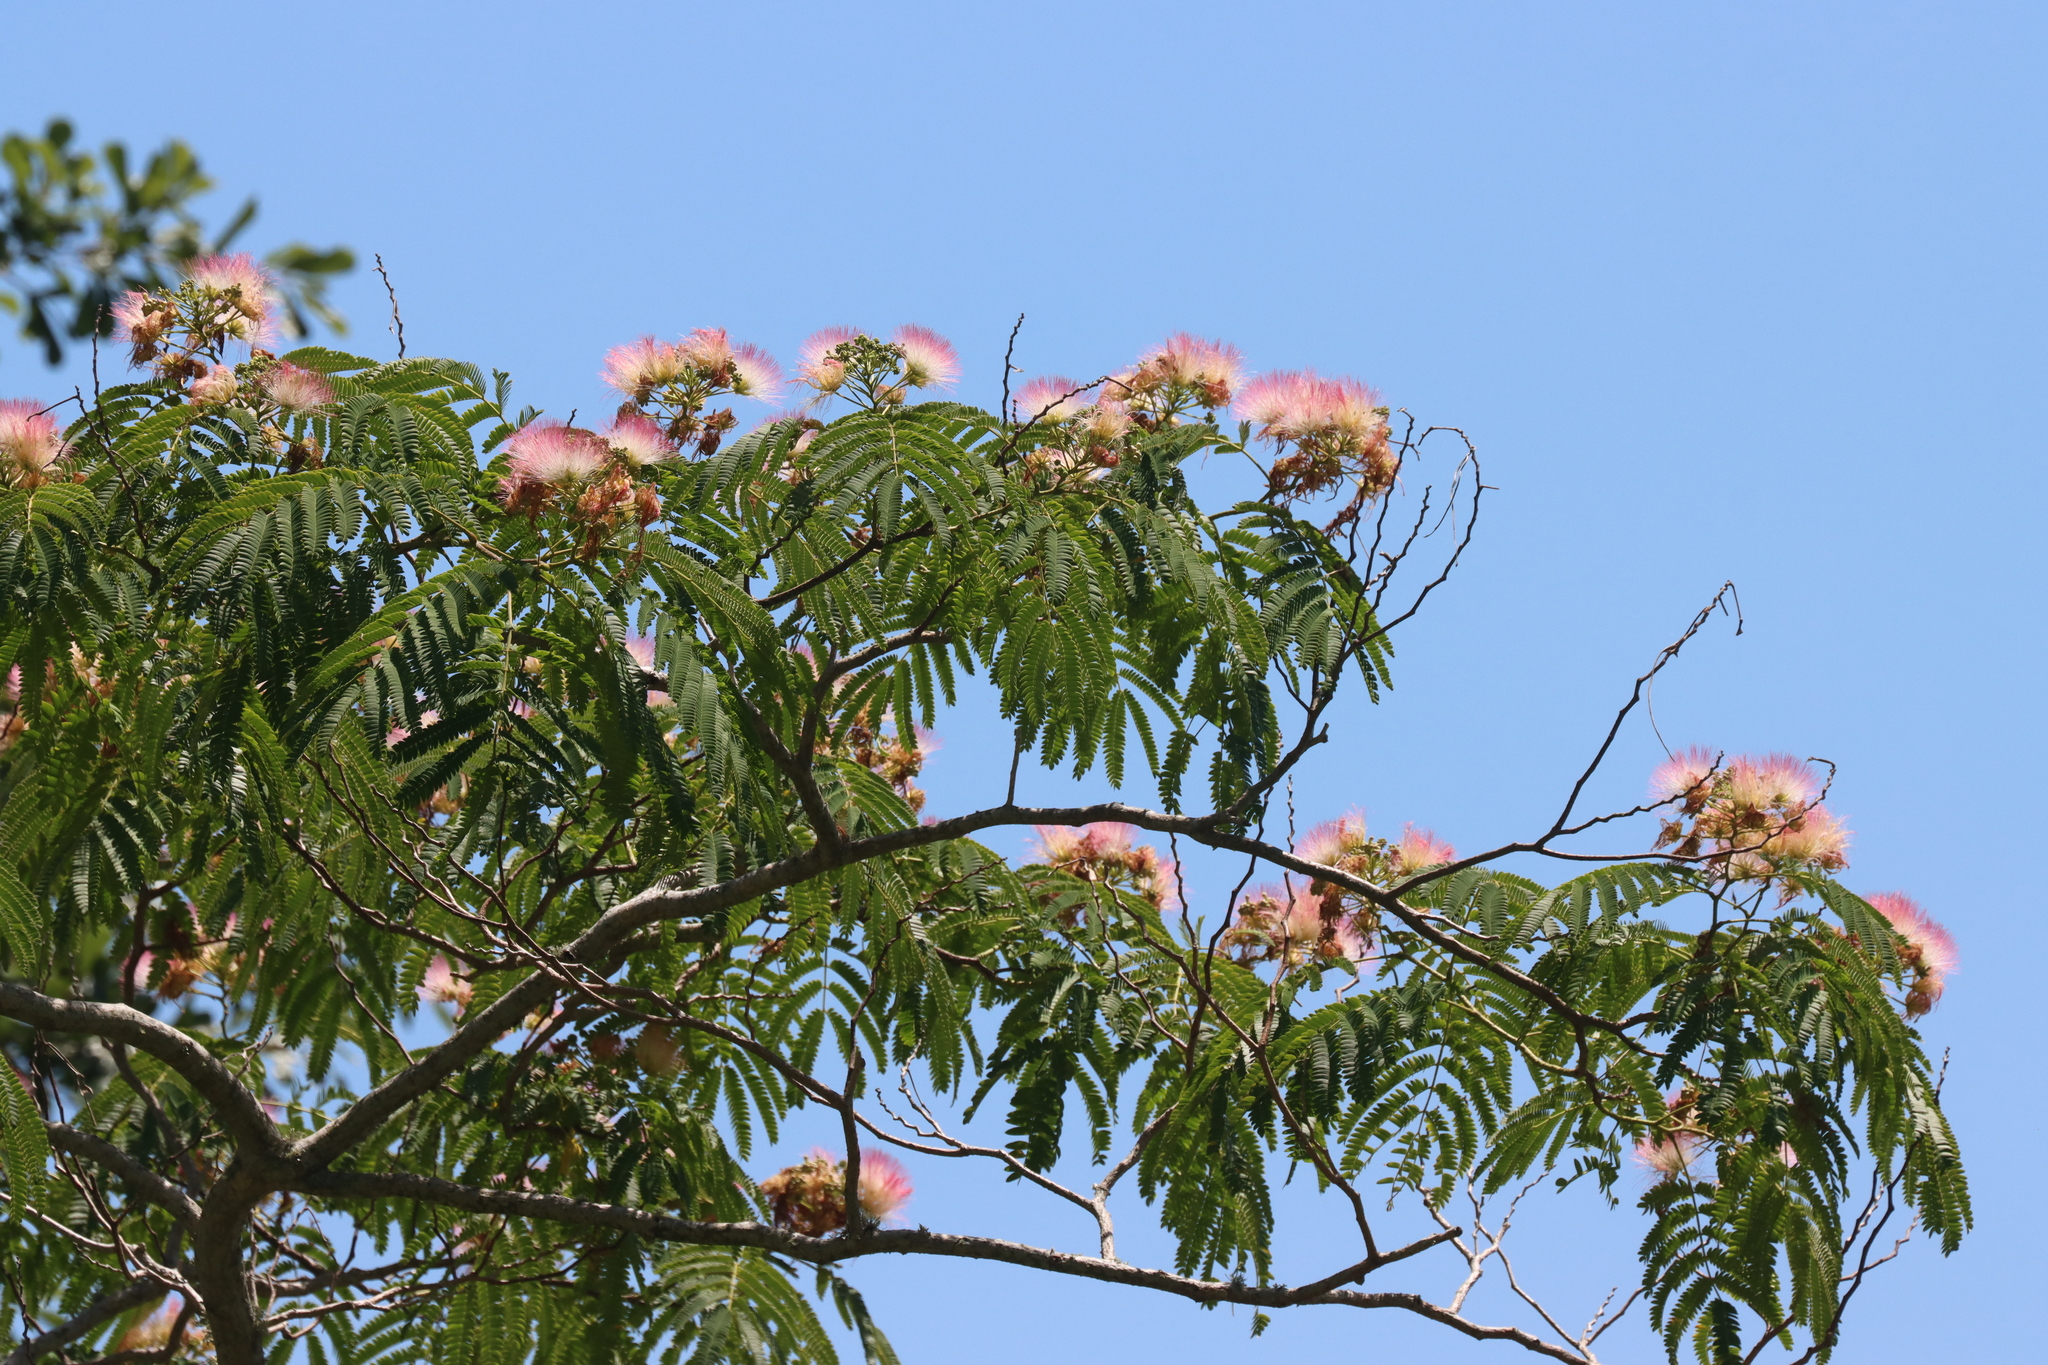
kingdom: Plantae
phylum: Tracheophyta
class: Magnoliopsida
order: Fabales
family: Fabaceae
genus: Albizia
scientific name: Albizia julibrissin
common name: Silktree
